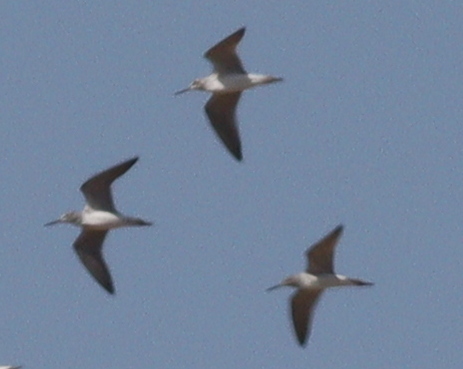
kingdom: Animalia
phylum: Chordata
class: Aves
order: Charadriiformes
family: Scolopacidae
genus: Tringa
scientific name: Tringa nebularia
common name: Common greenshank
